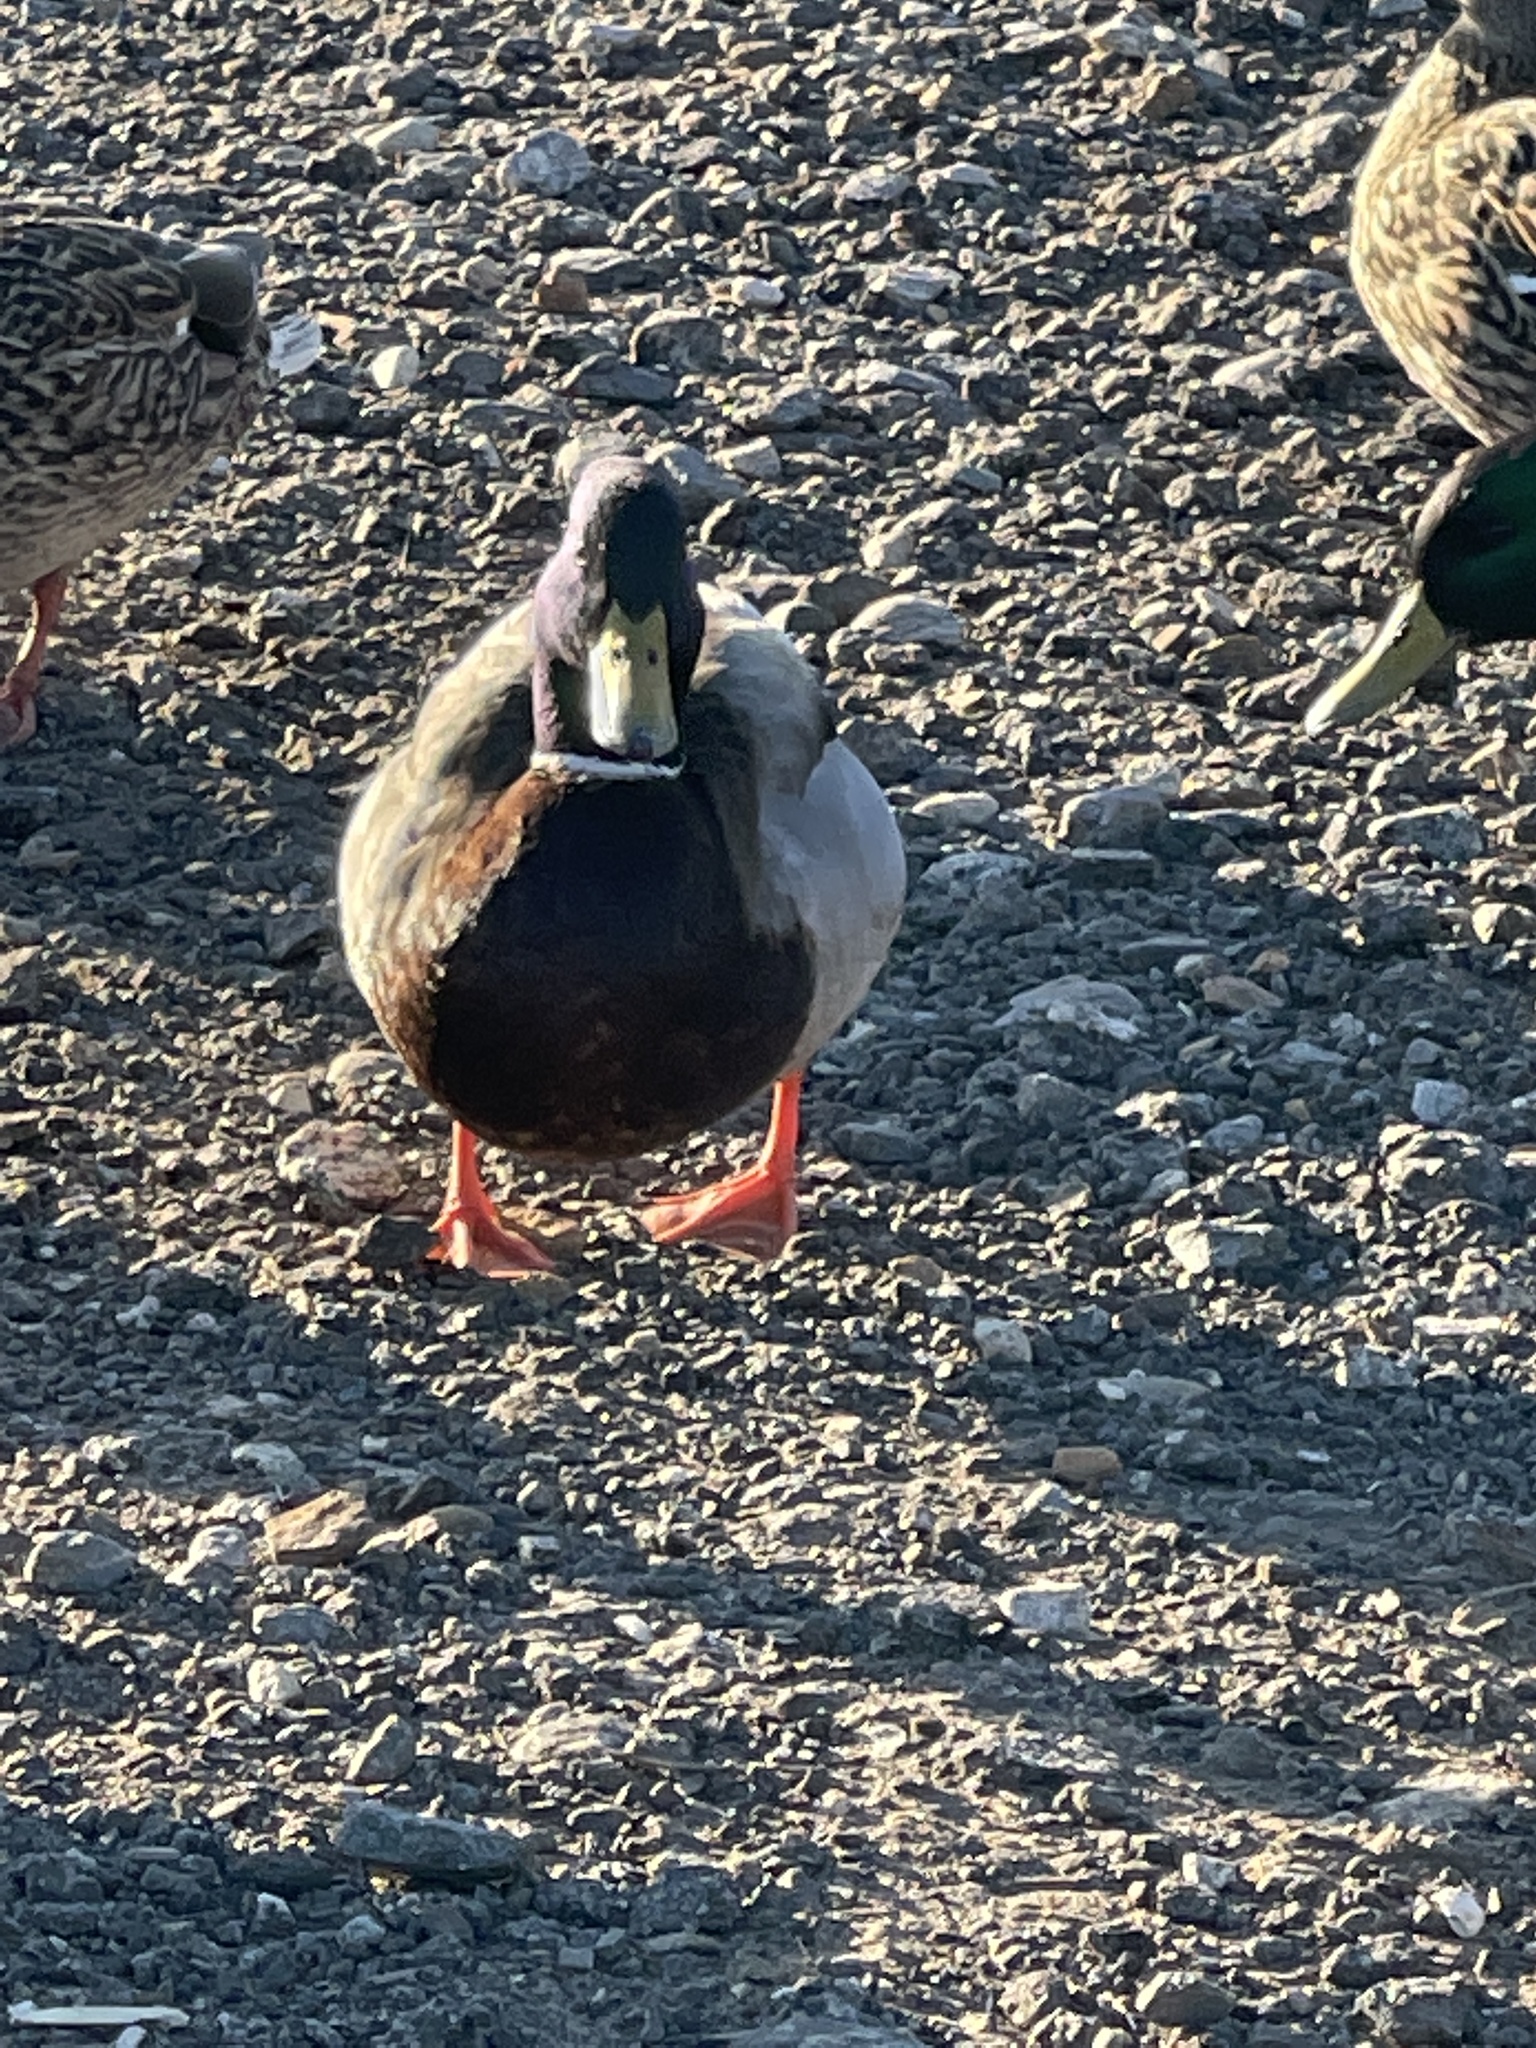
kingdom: Animalia
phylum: Chordata
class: Aves
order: Anseriformes
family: Anatidae
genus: Anas
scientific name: Anas platyrhynchos
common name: Mallard
